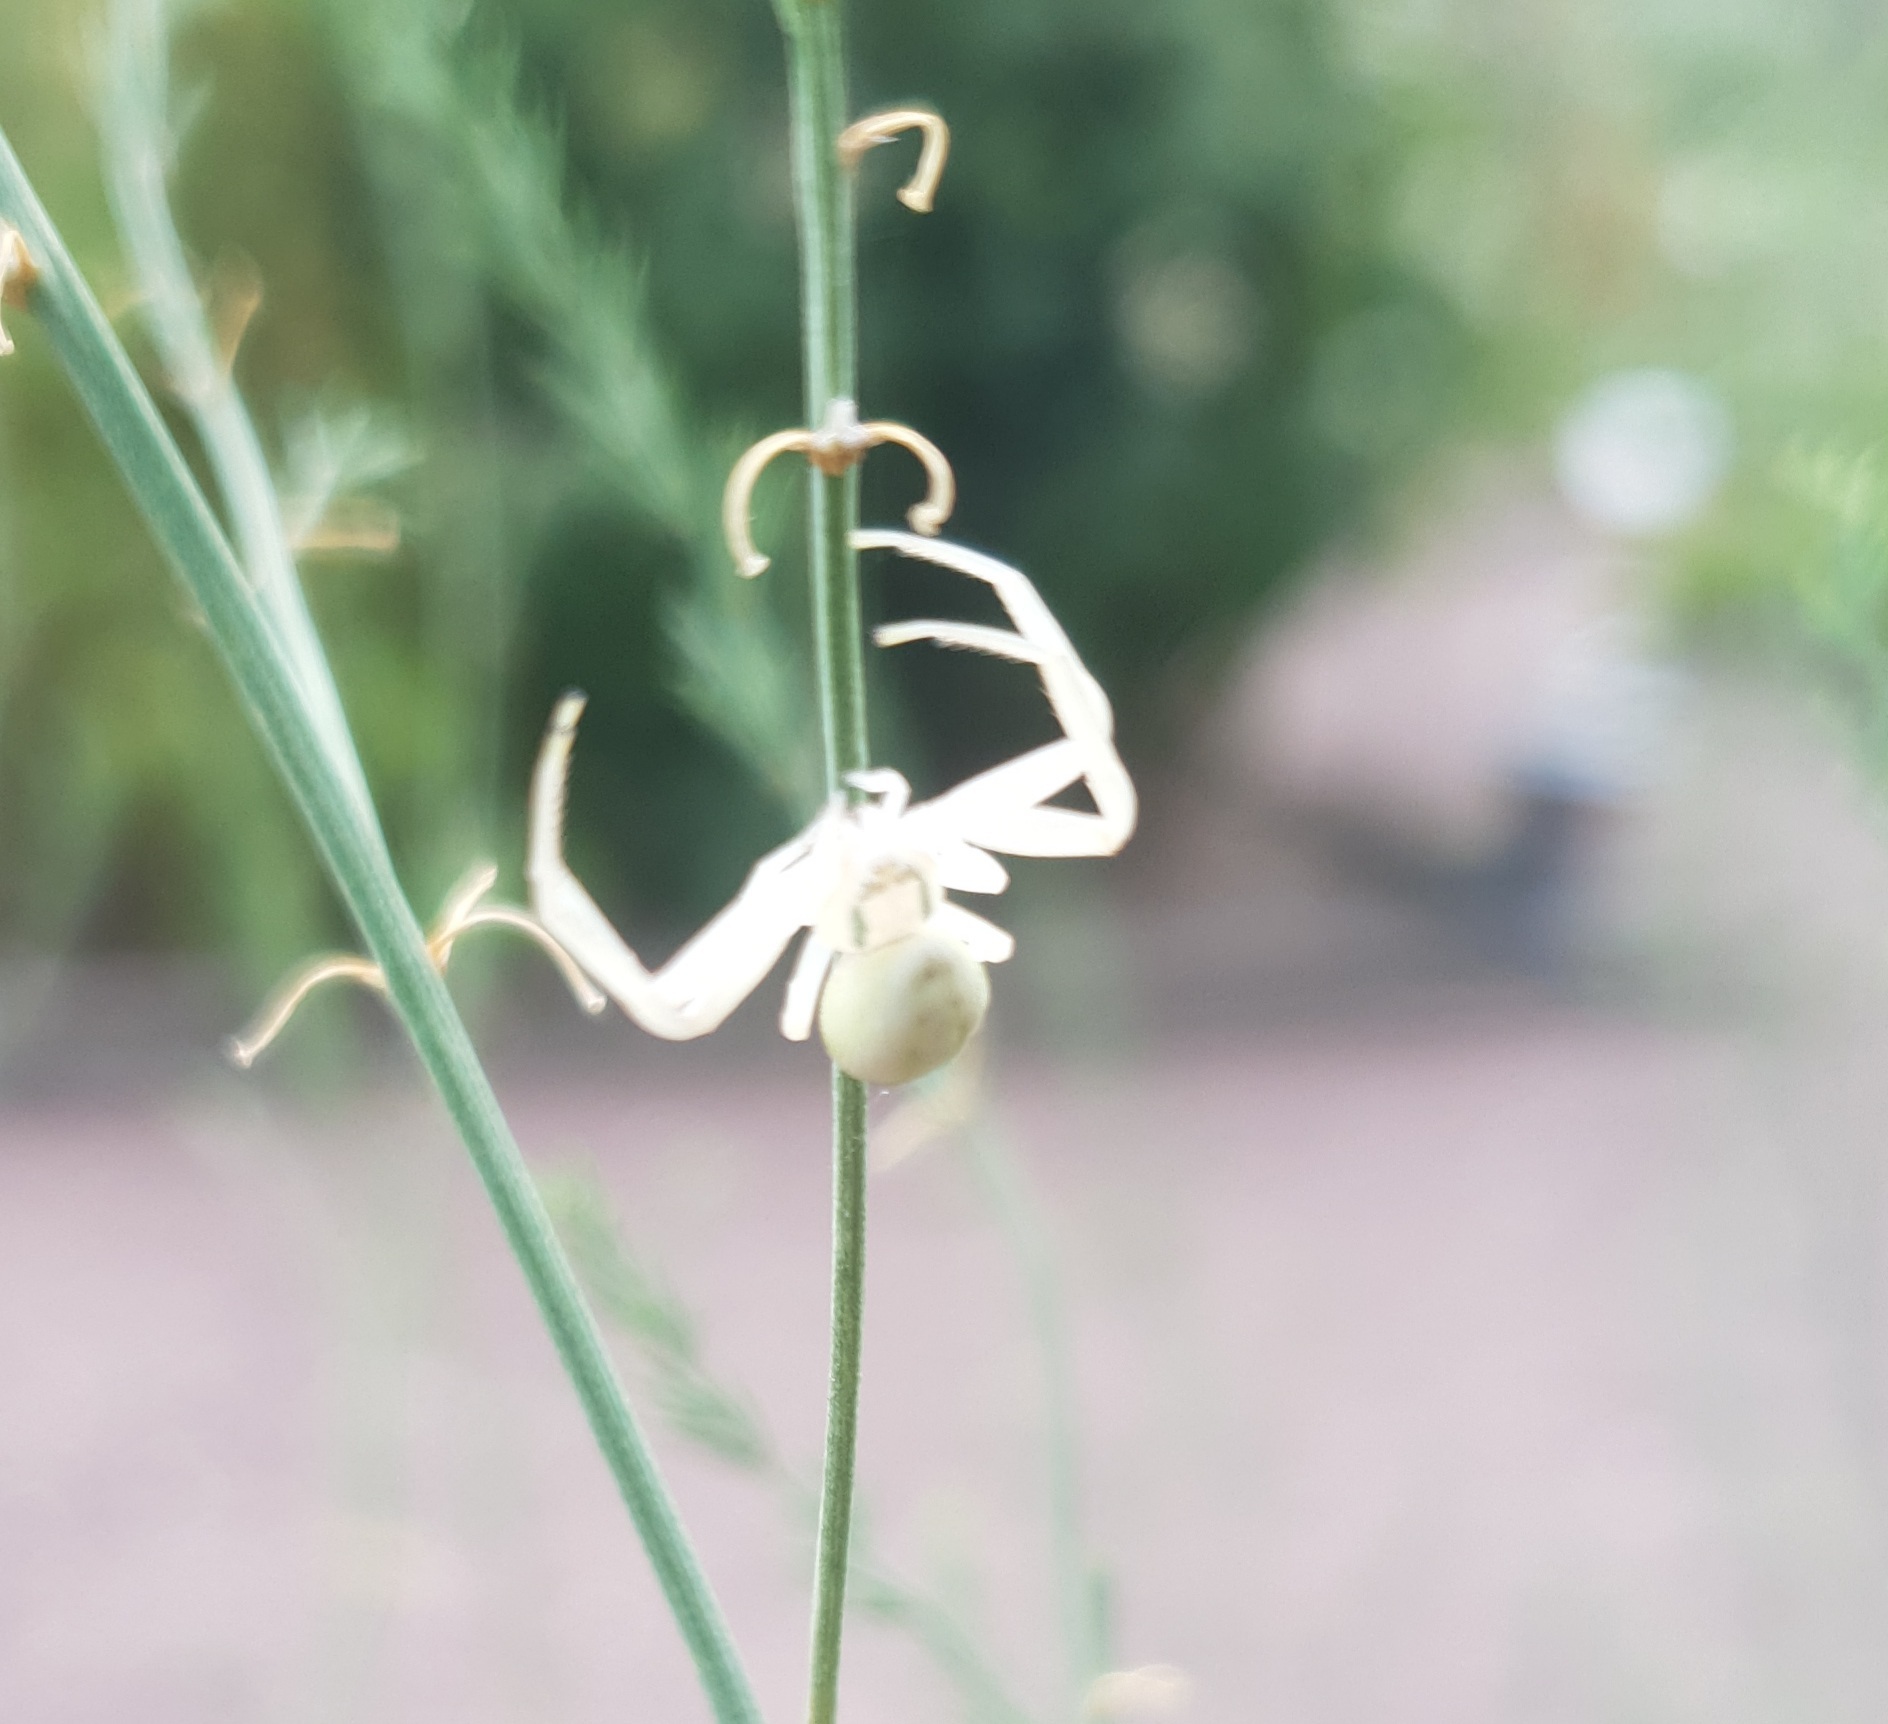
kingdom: Animalia
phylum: Arthropoda
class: Arachnida
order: Araneae
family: Thomisidae
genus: Misumena
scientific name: Misumena vatia
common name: Goldenrod crab spider
